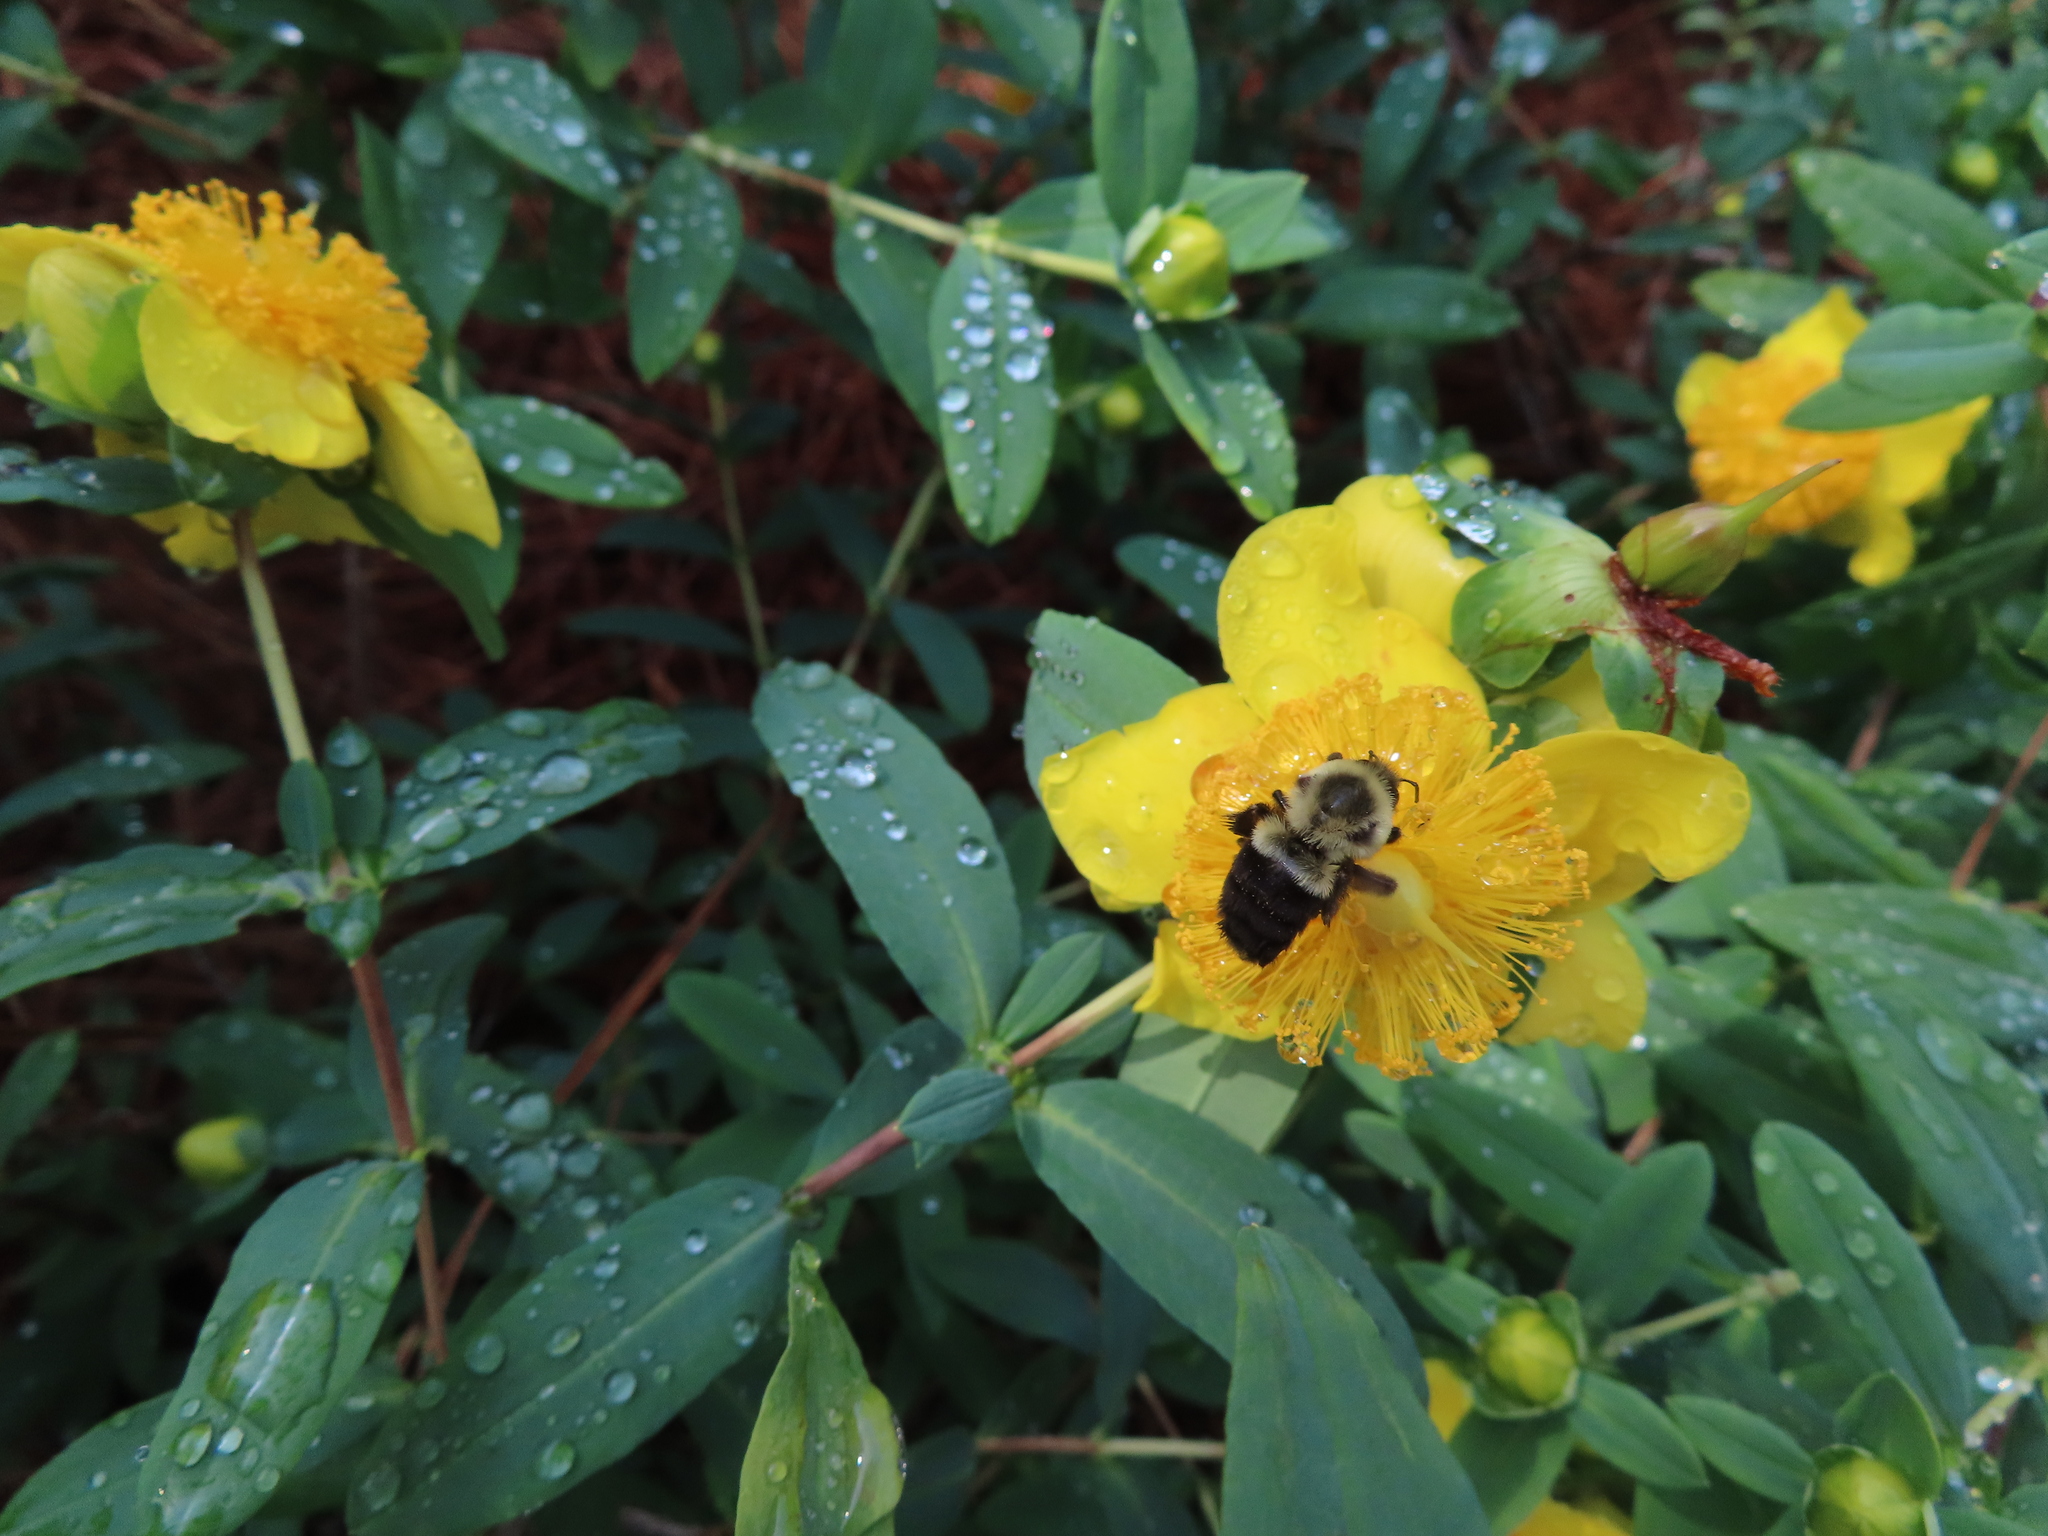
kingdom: Animalia
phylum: Arthropoda
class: Insecta
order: Hymenoptera
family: Apidae
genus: Bombus
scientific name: Bombus impatiens
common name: Common eastern bumble bee
